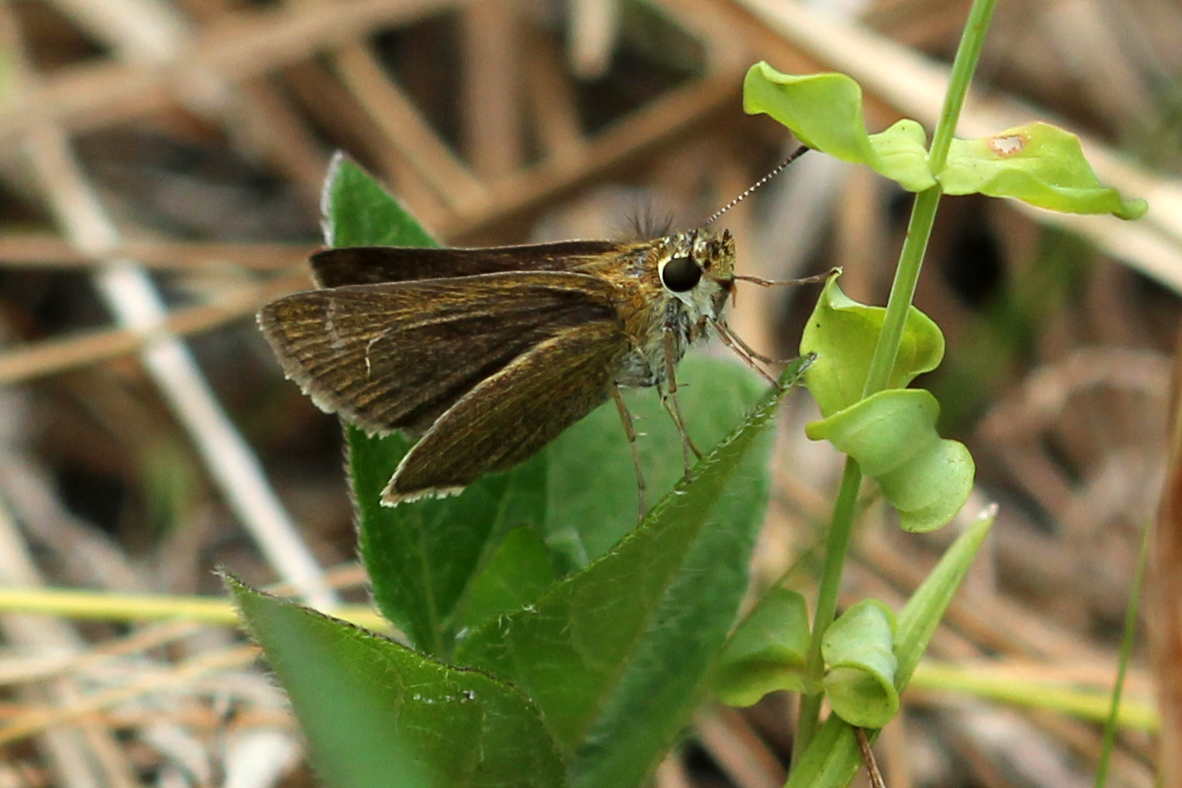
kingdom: Animalia
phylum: Arthropoda
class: Insecta
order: Lepidoptera
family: Hesperiidae
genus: Nastra
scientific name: Nastra lherminier
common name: Swarthy skipper
